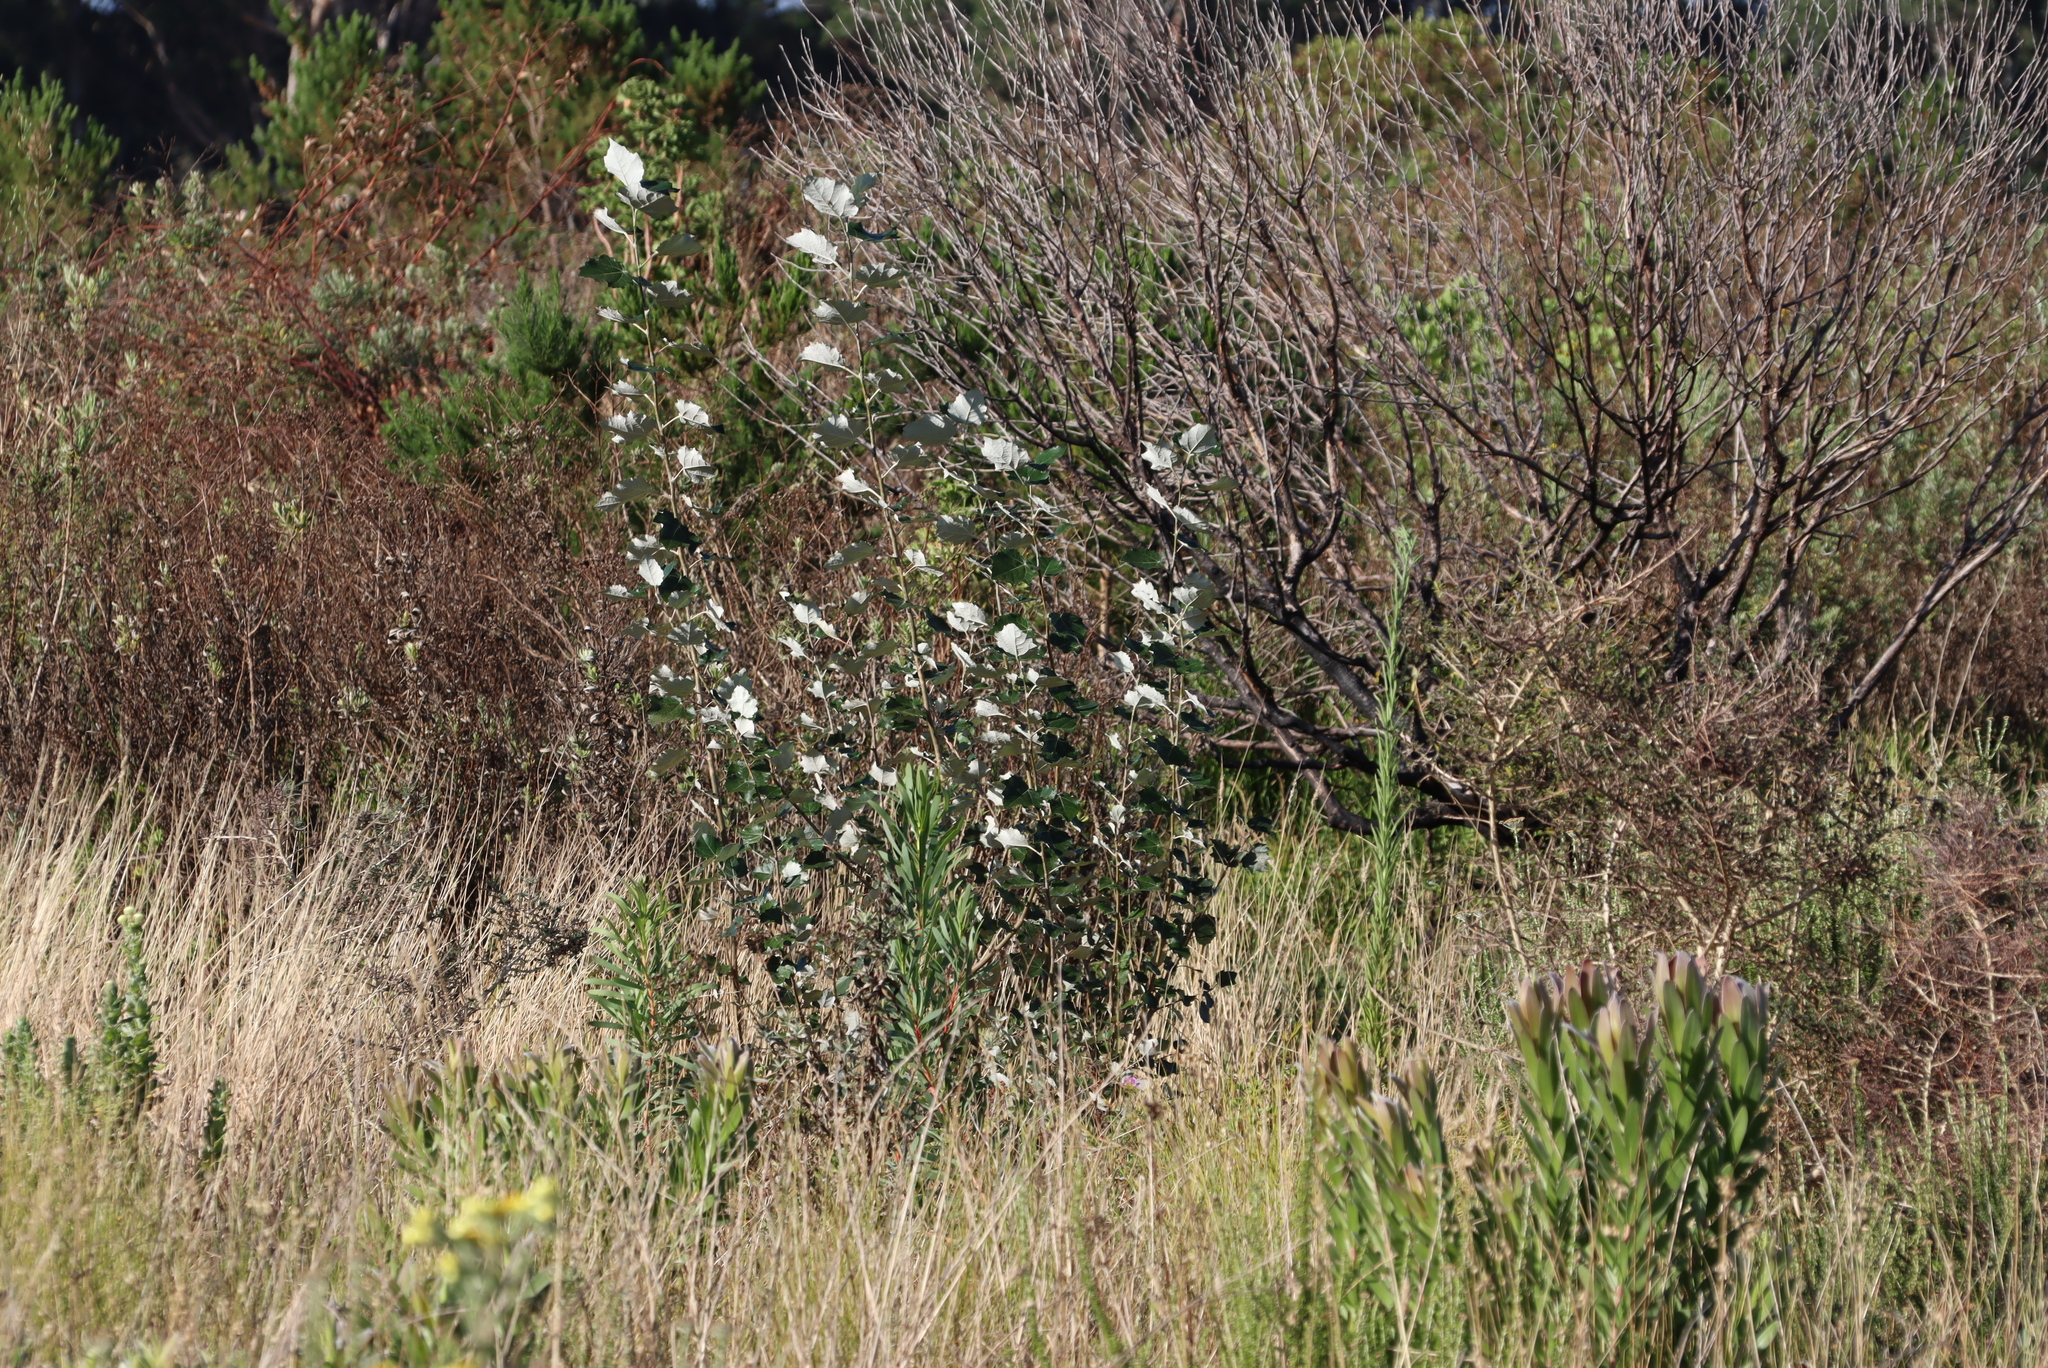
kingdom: Plantae
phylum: Tracheophyta
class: Magnoliopsida
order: Malpighiales
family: Salicaceae
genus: Populus
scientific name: Populus canescens
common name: Gray poplar
